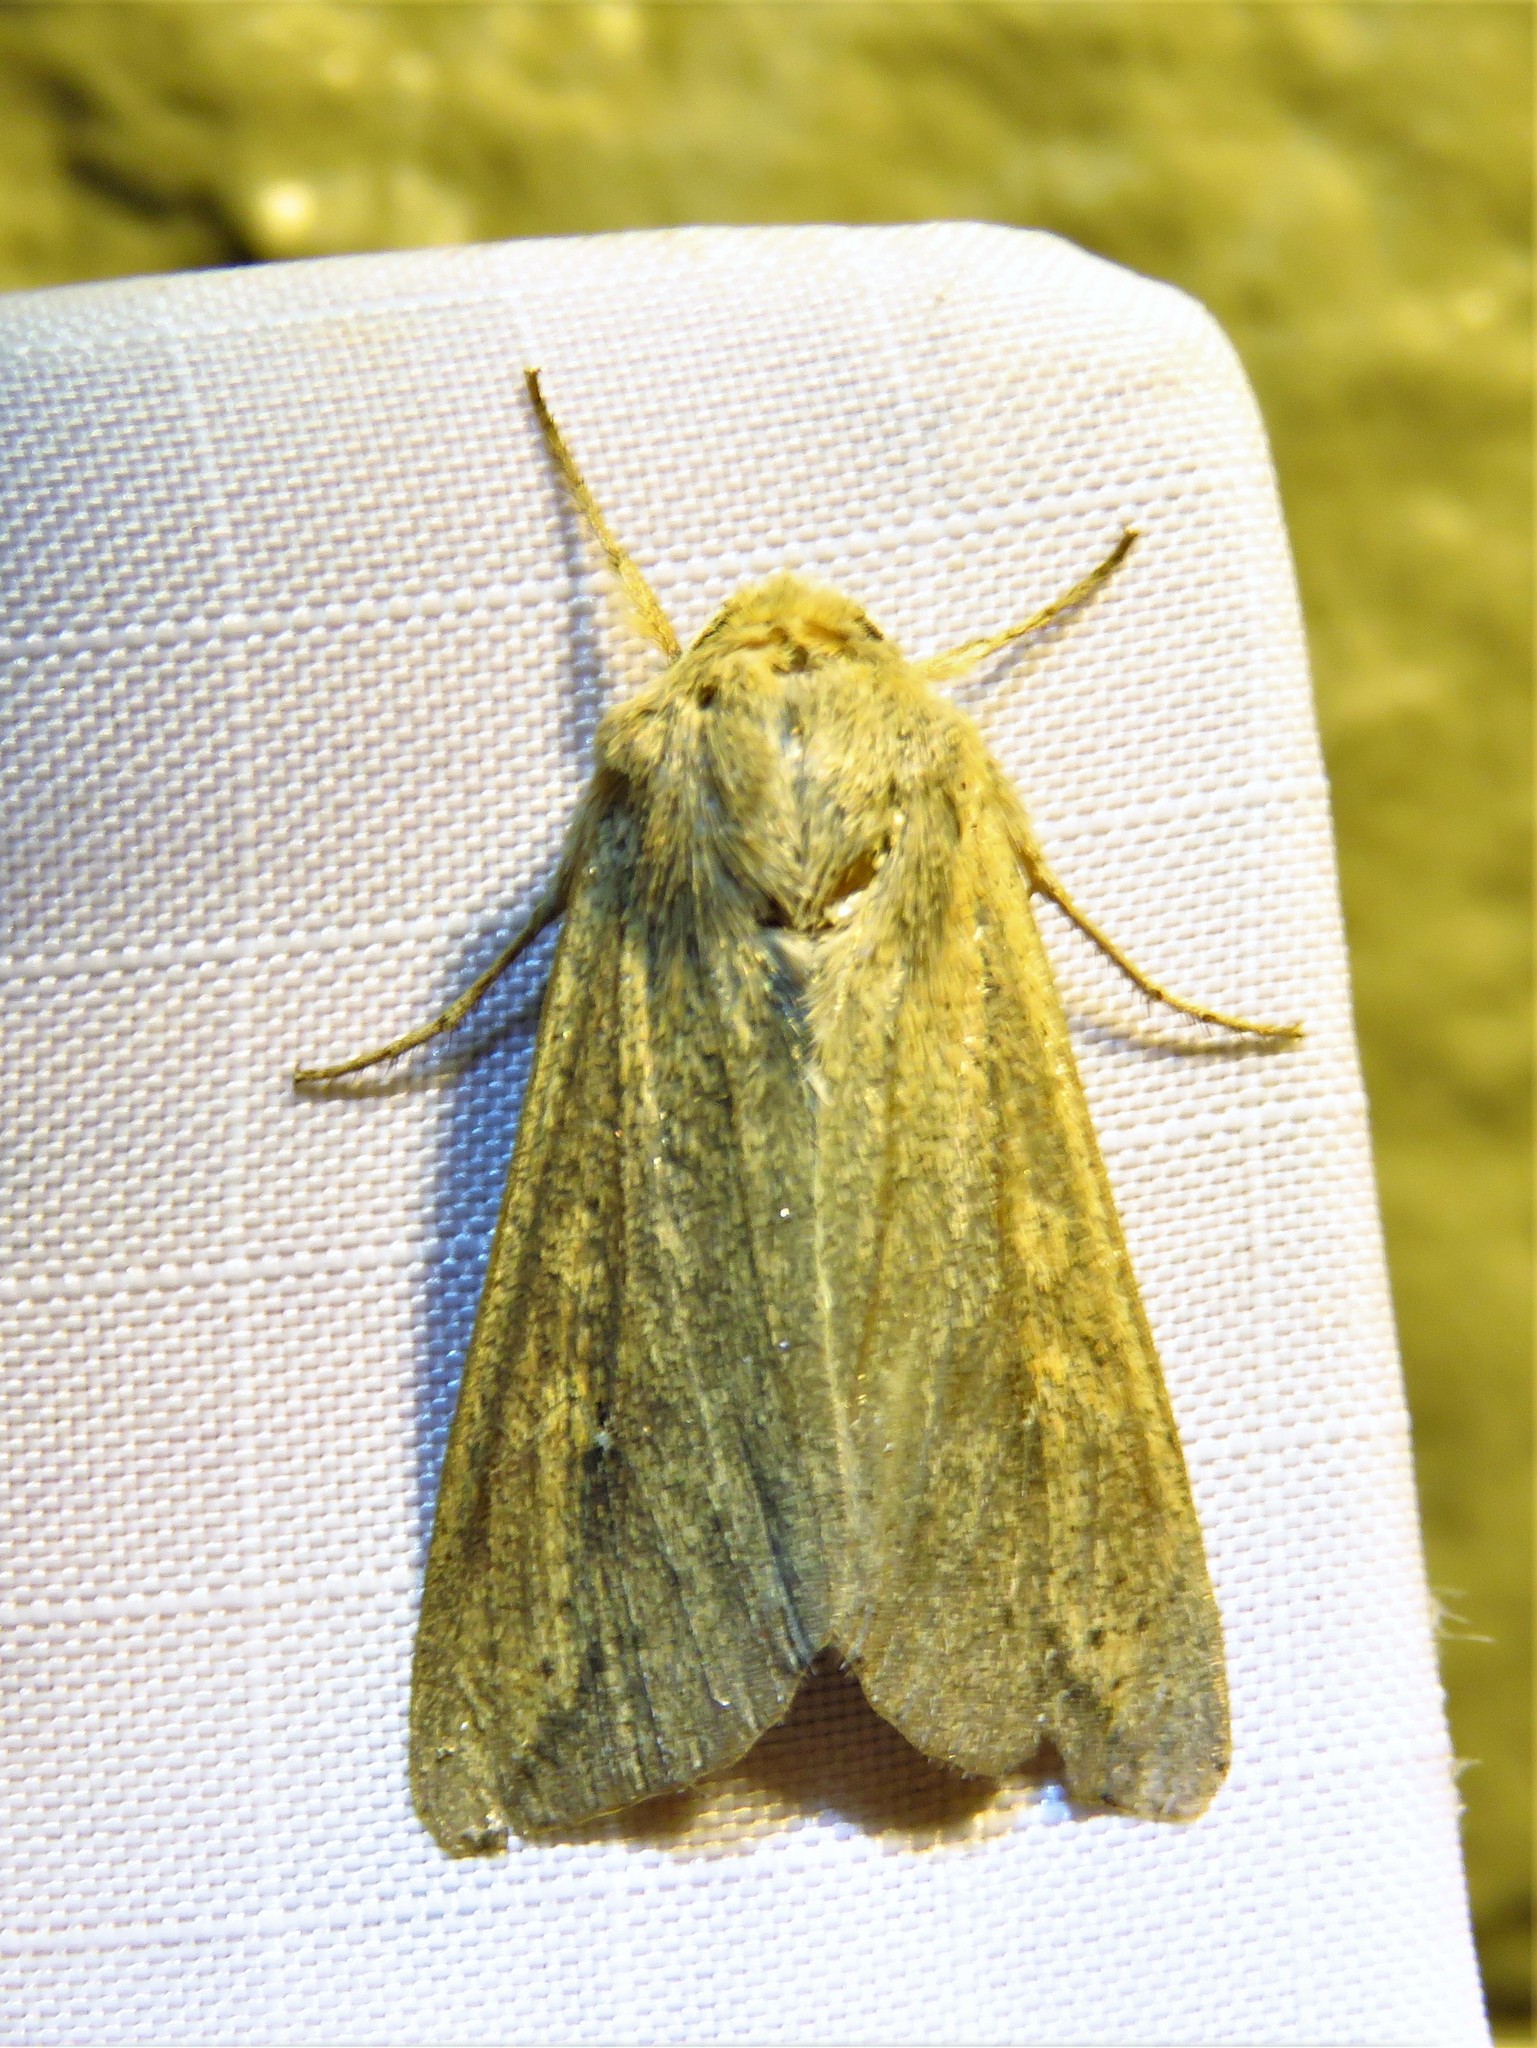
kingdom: Animalia
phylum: Arthropoda
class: Insecta
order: Lepidoptera
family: Noctuidae
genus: Mythimna
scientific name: Mythimna unipuncta
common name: White-speck
